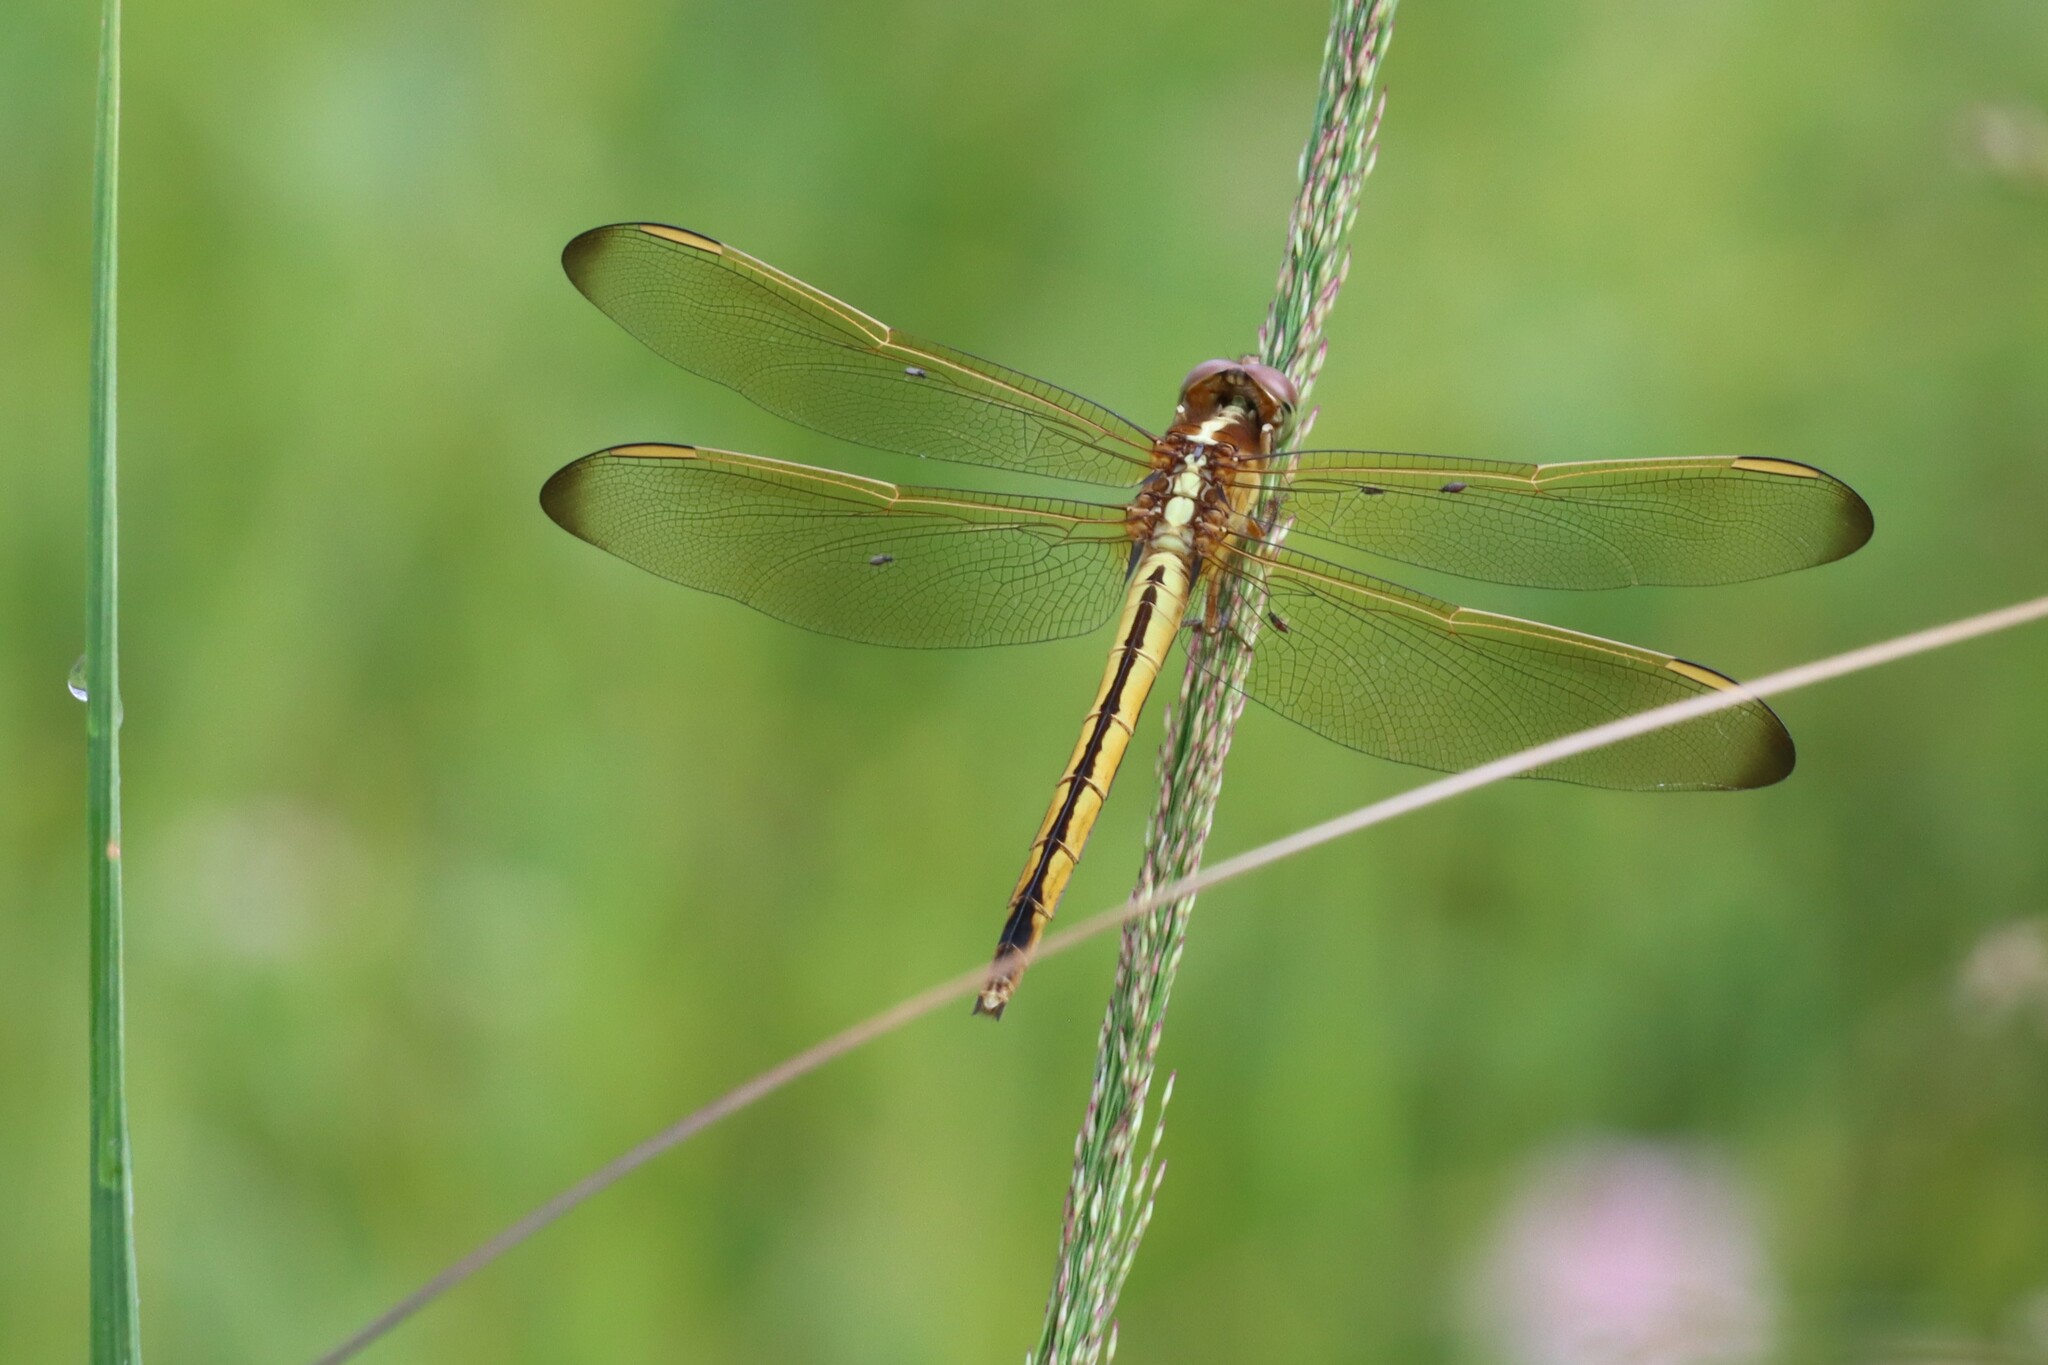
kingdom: Animalia
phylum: Arthropoda
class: Insecta
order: Odonata
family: Libellulidae
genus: Libellula
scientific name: Libellula needhami
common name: Needham's skimmer
